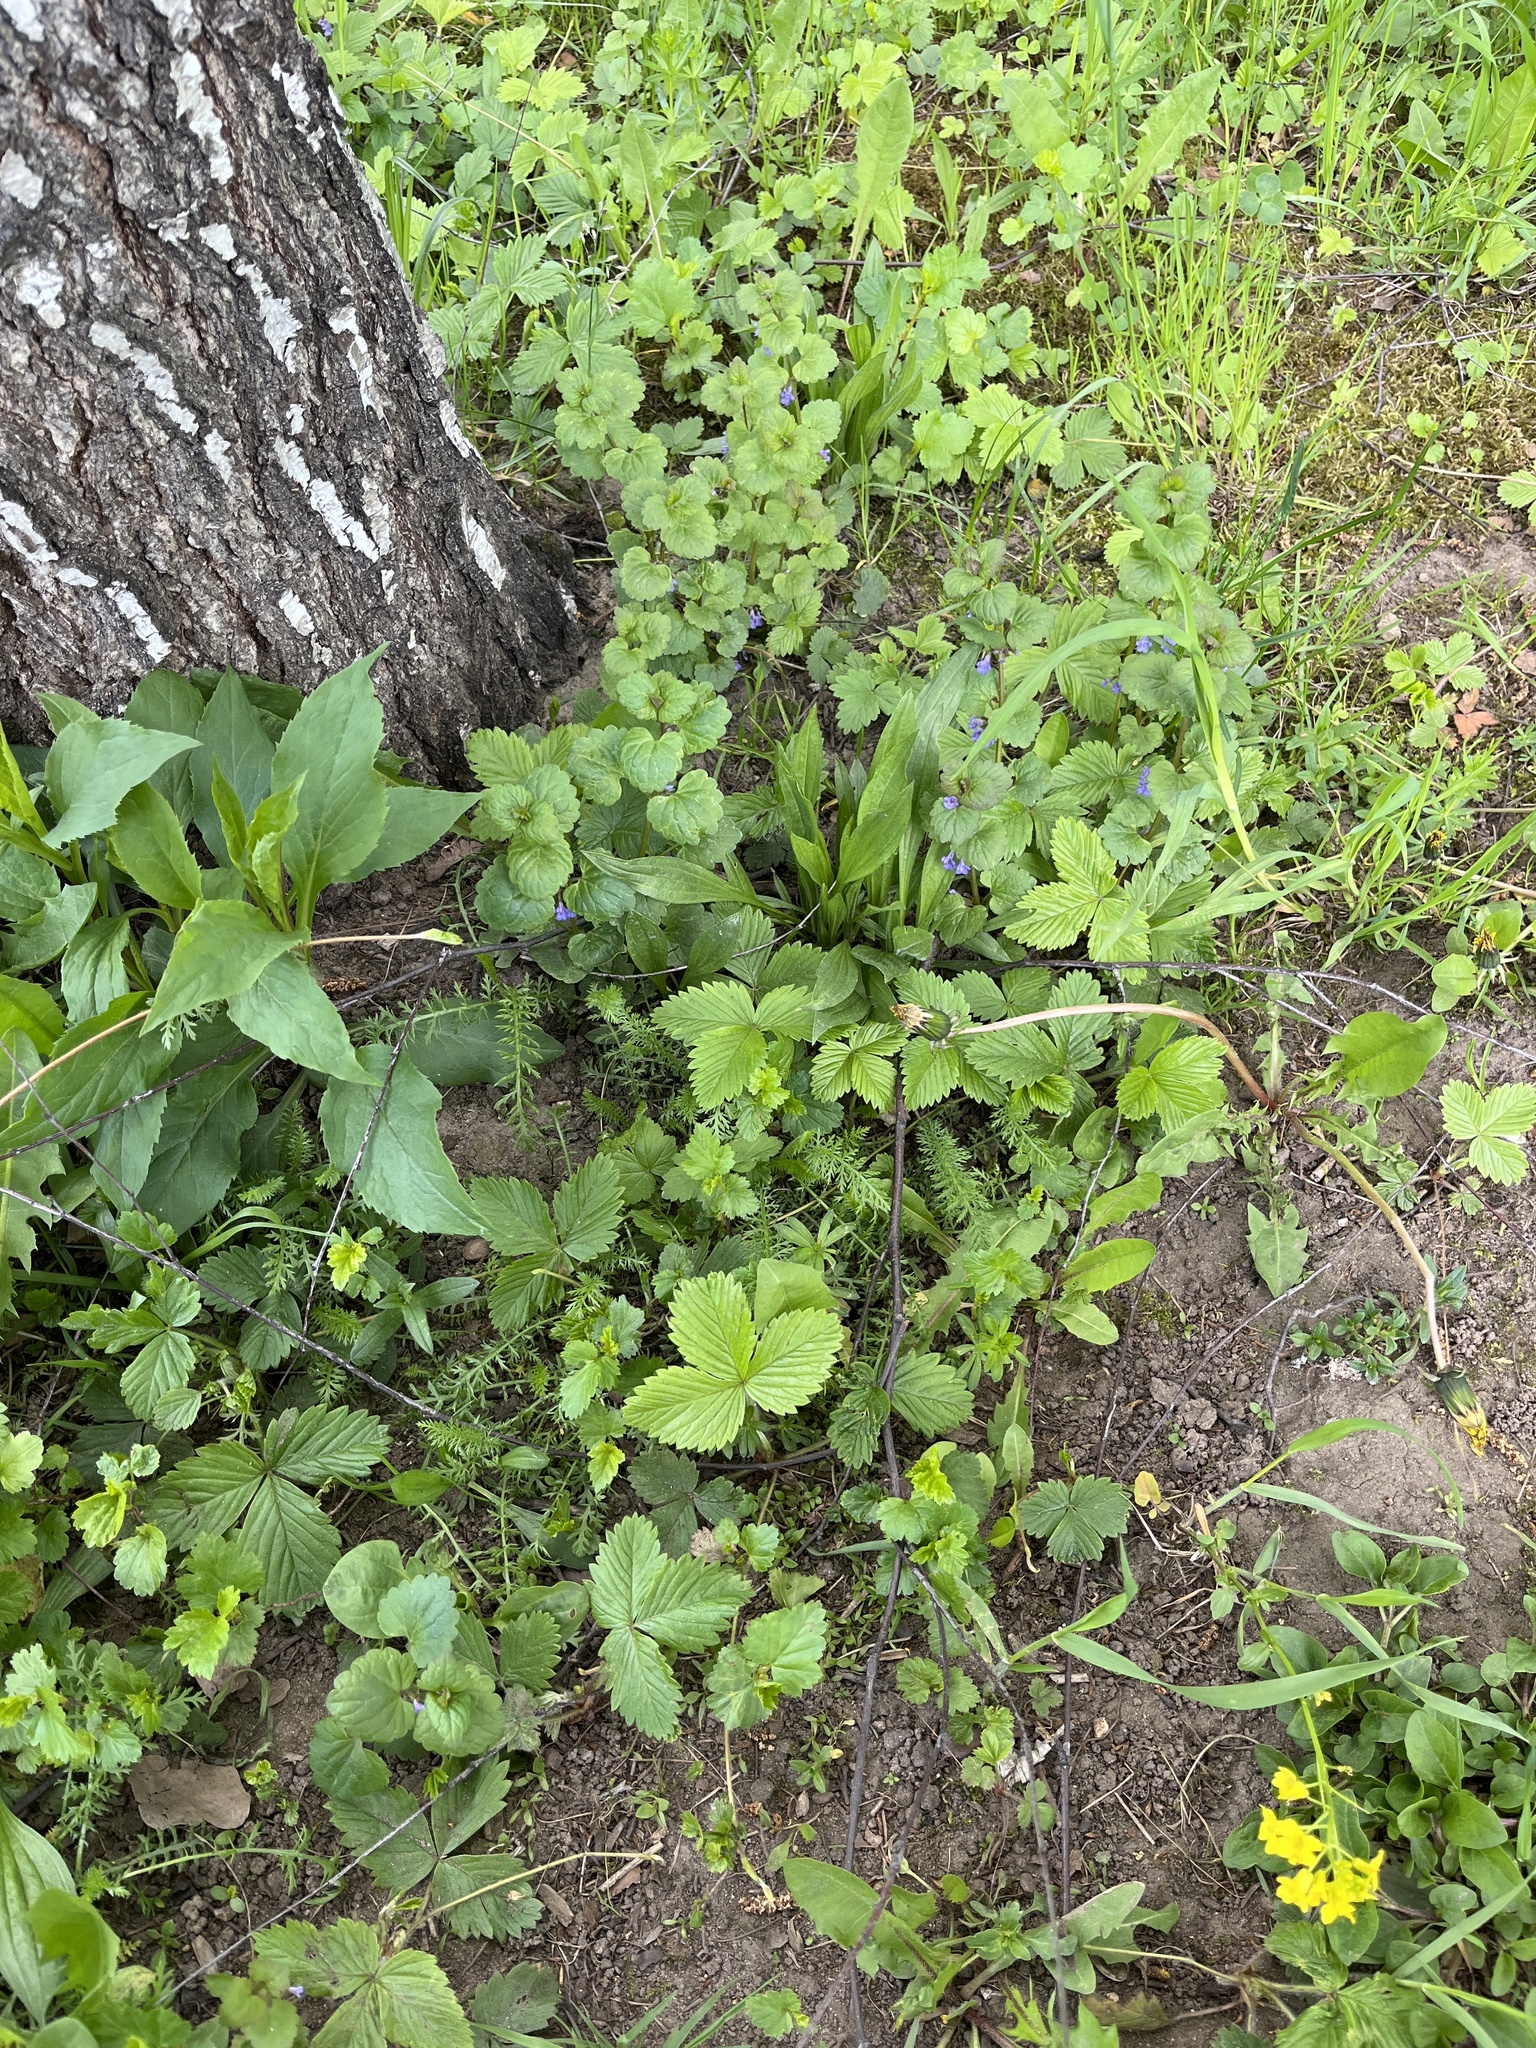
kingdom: Plantae
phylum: Tracheophyta
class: Magnoliopsida
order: Rosales
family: Rosaceae
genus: Fragaria
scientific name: Fragaria vesca
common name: Wild strawberry
